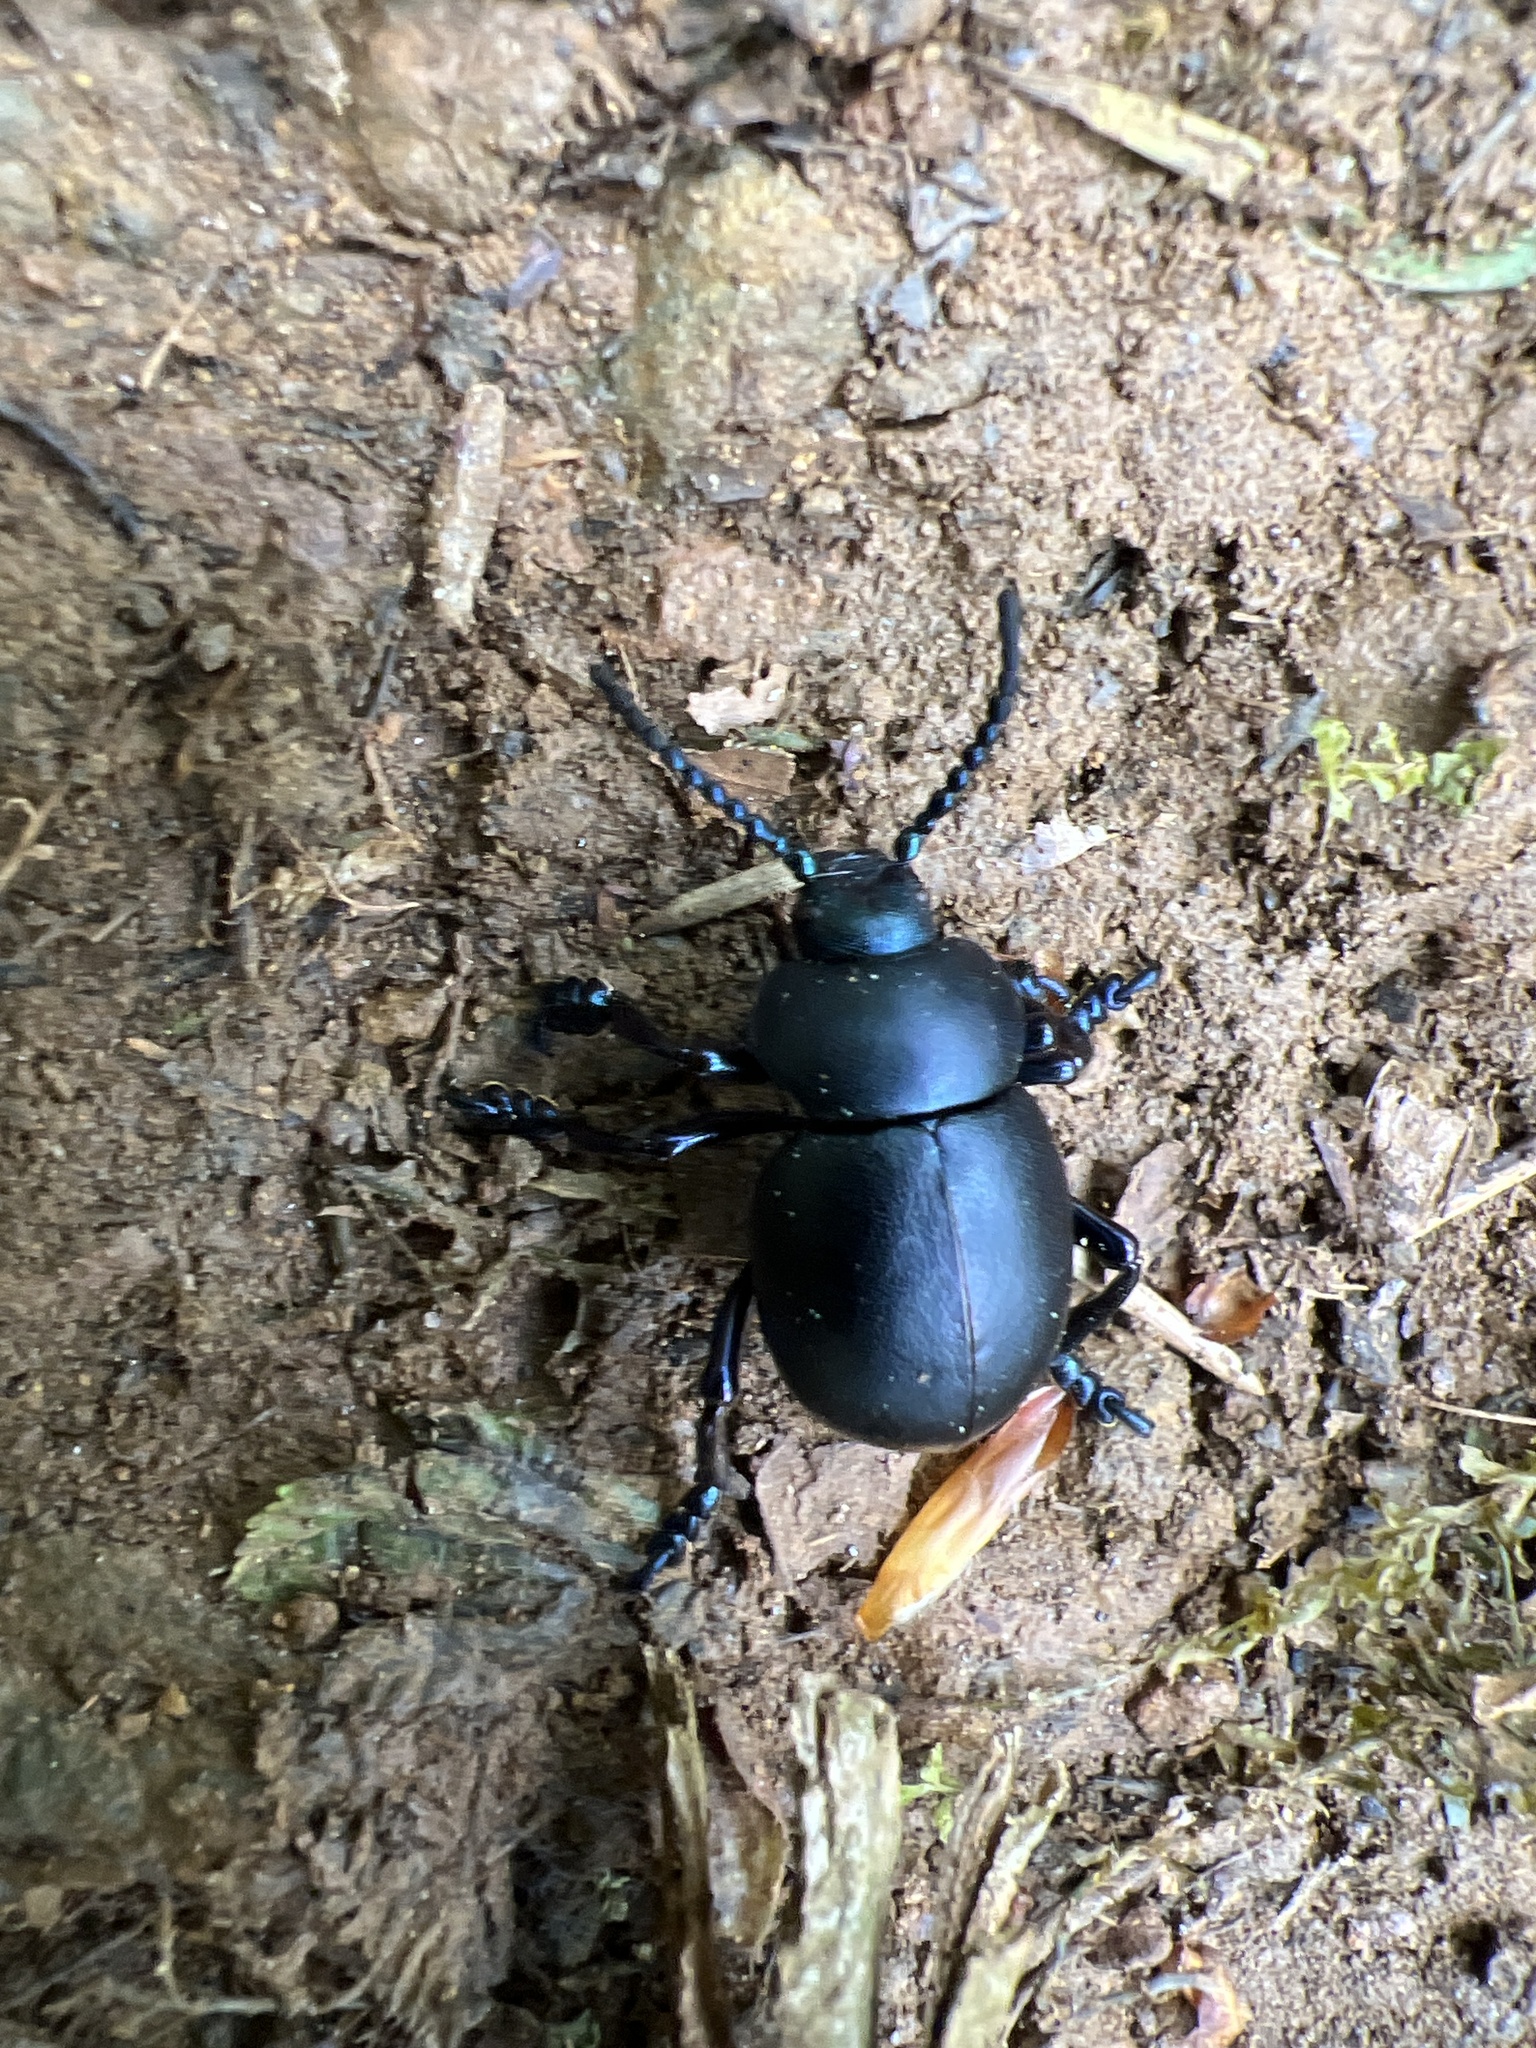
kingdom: Animalia
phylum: Arthropoda
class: Insecta
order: Coleoptera
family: Chrysomelidae
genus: Timarcha
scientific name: Timarcha tenebricosa
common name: Bloody-nosed beetle
